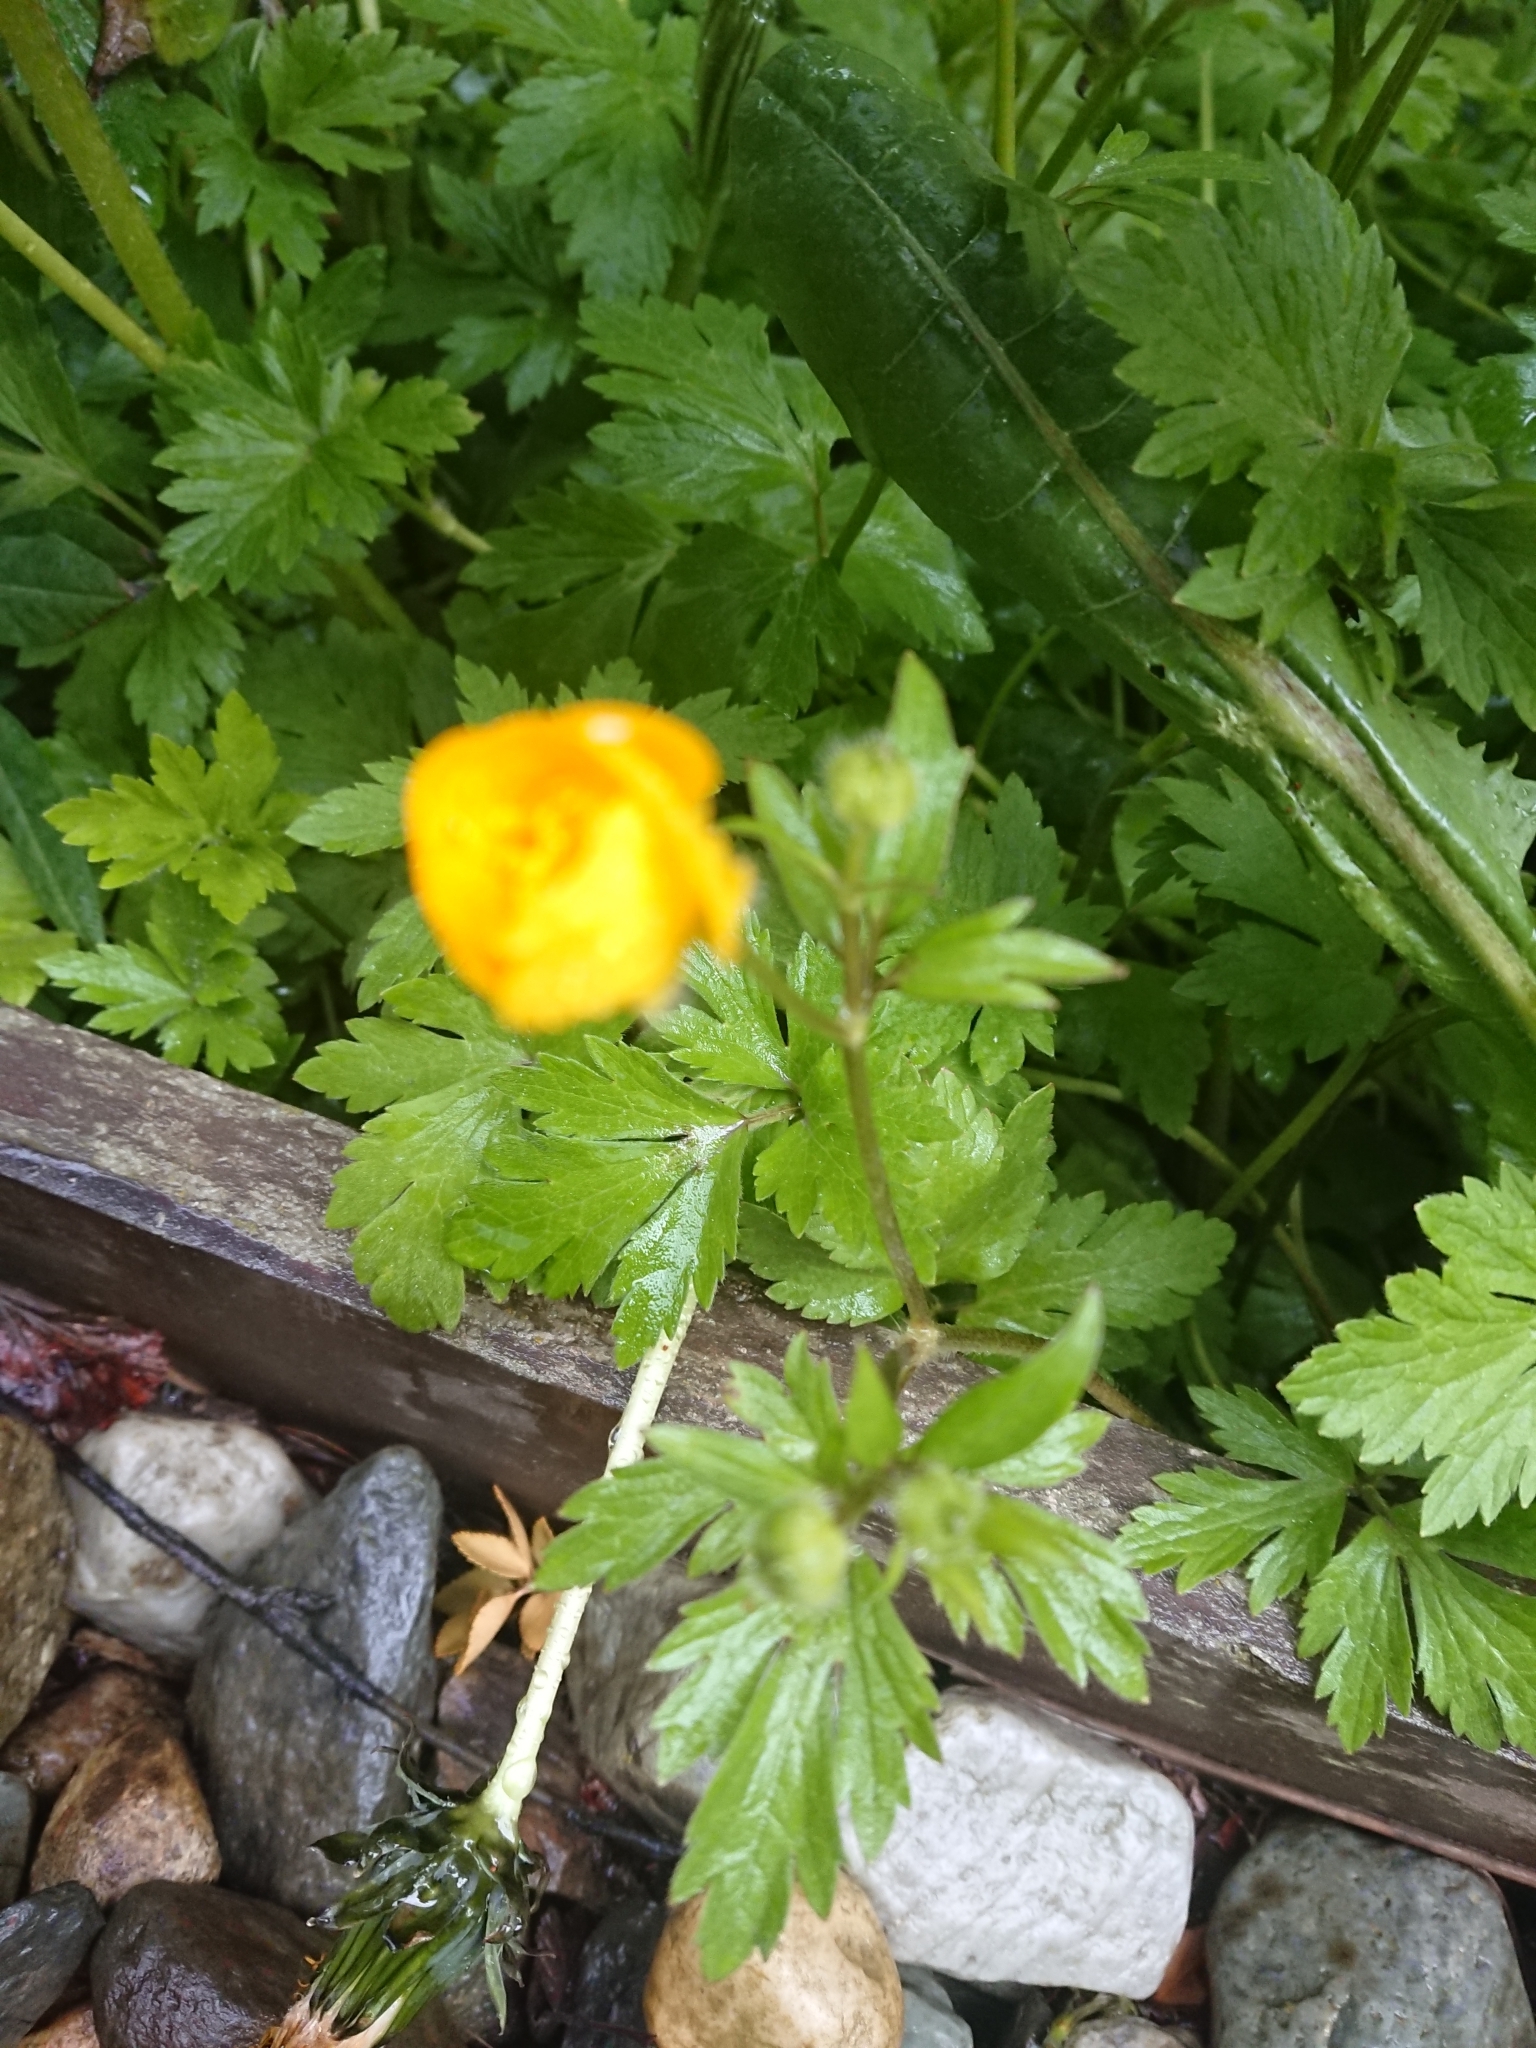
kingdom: Plantae
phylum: Tracheophyta
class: Magnoliopsida
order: Ranunculales
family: Ranunculaceae
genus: Ranunculus
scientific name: Ranunculus repens
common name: Creeping buttercup
